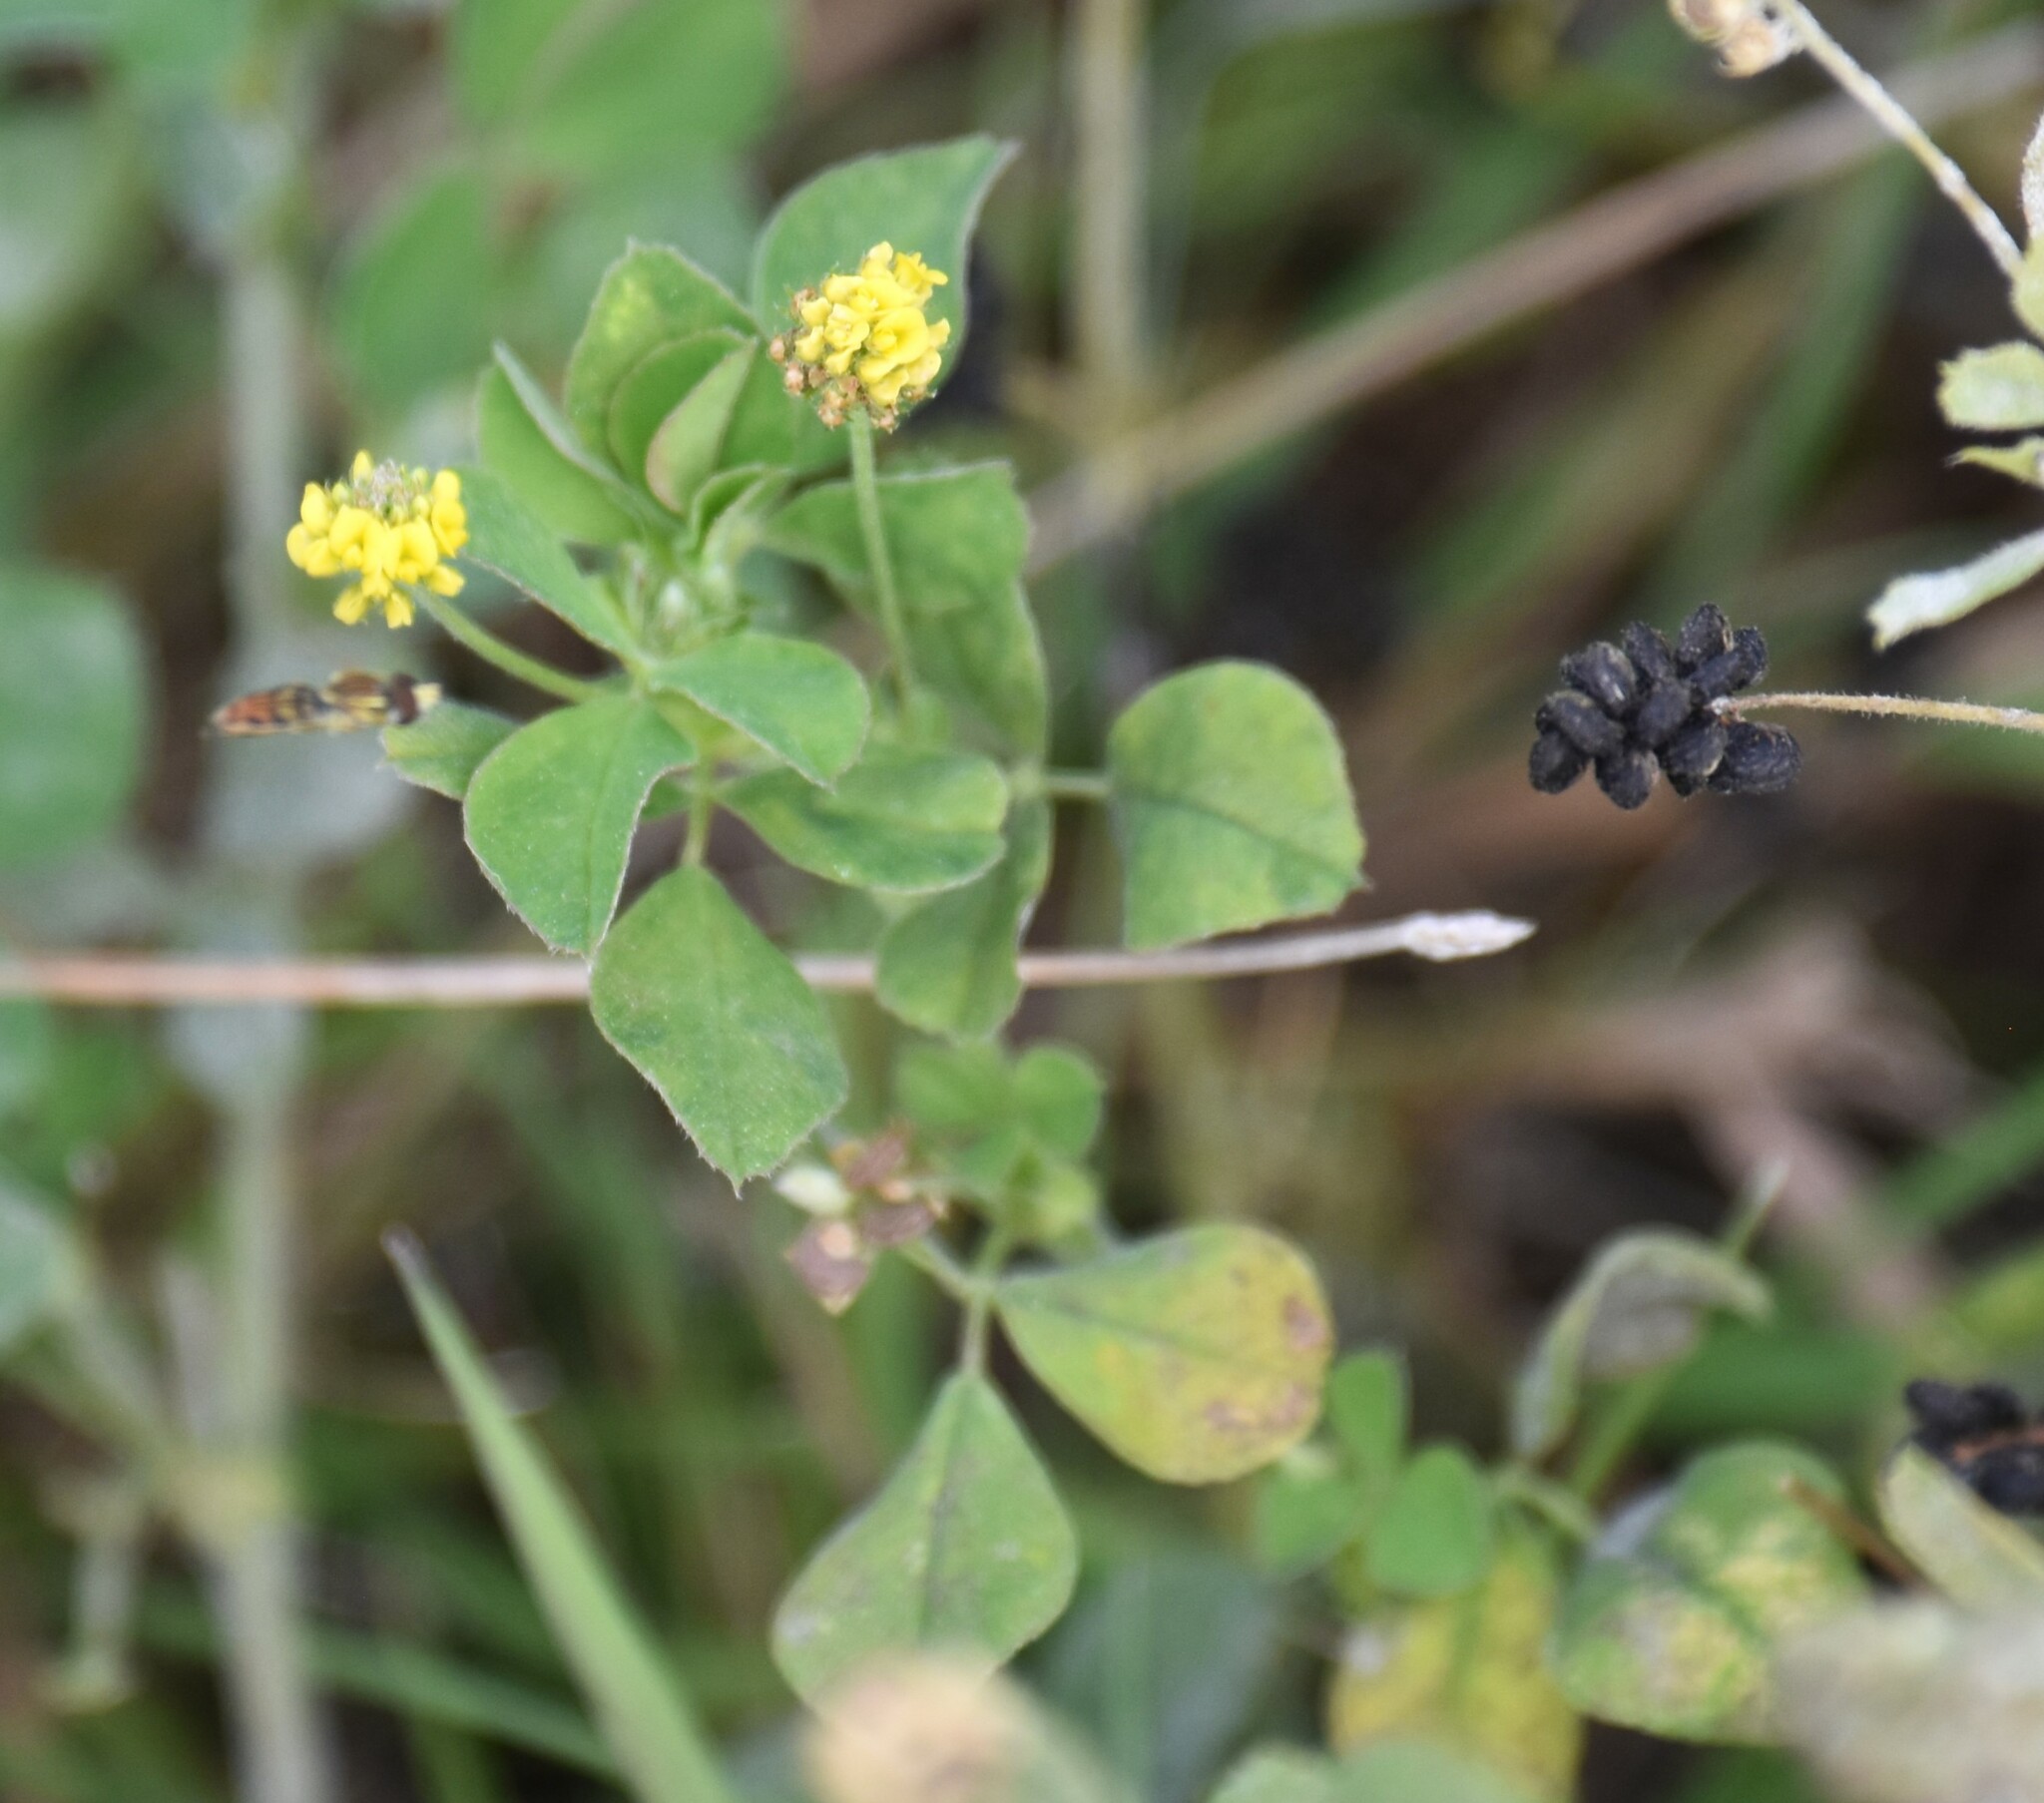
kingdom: Plantae
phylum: Tracheophyta
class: Magnoliopsida
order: Fabales
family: Fabaceae
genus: Medicago
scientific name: Medicago lupulina
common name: Black medick
